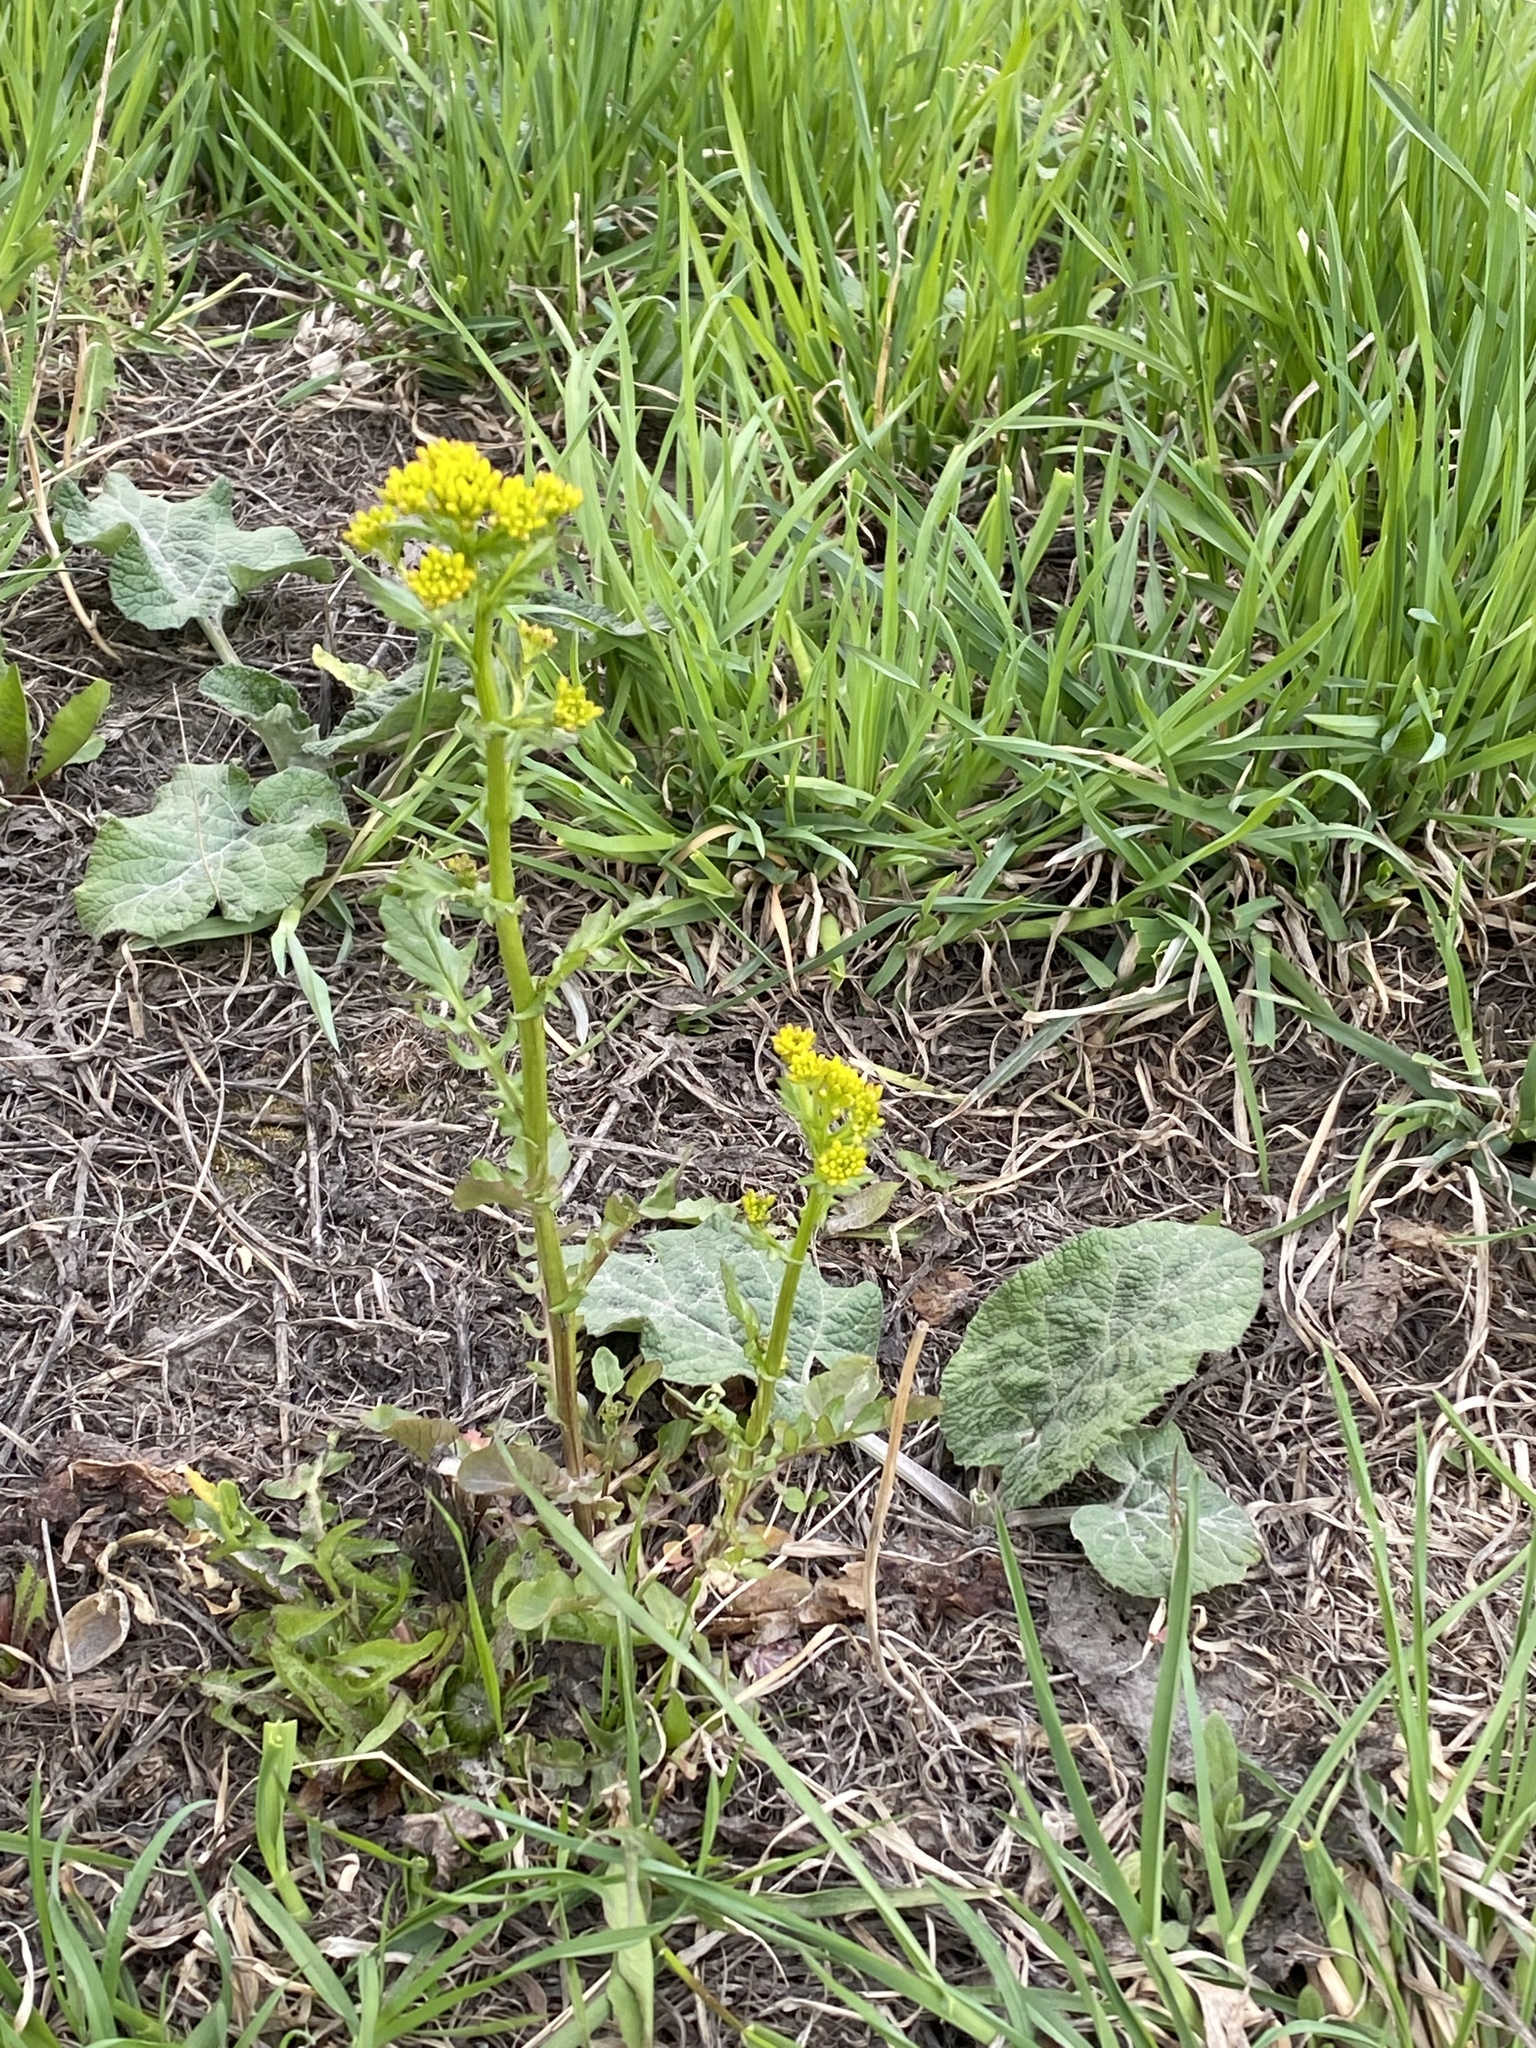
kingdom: Plantae
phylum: Tracheophyta
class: Magnoliopsida
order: Brassicales
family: Brassicaceae
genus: Barbarea
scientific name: Barbarea vulgaris
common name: Cressy-greens
